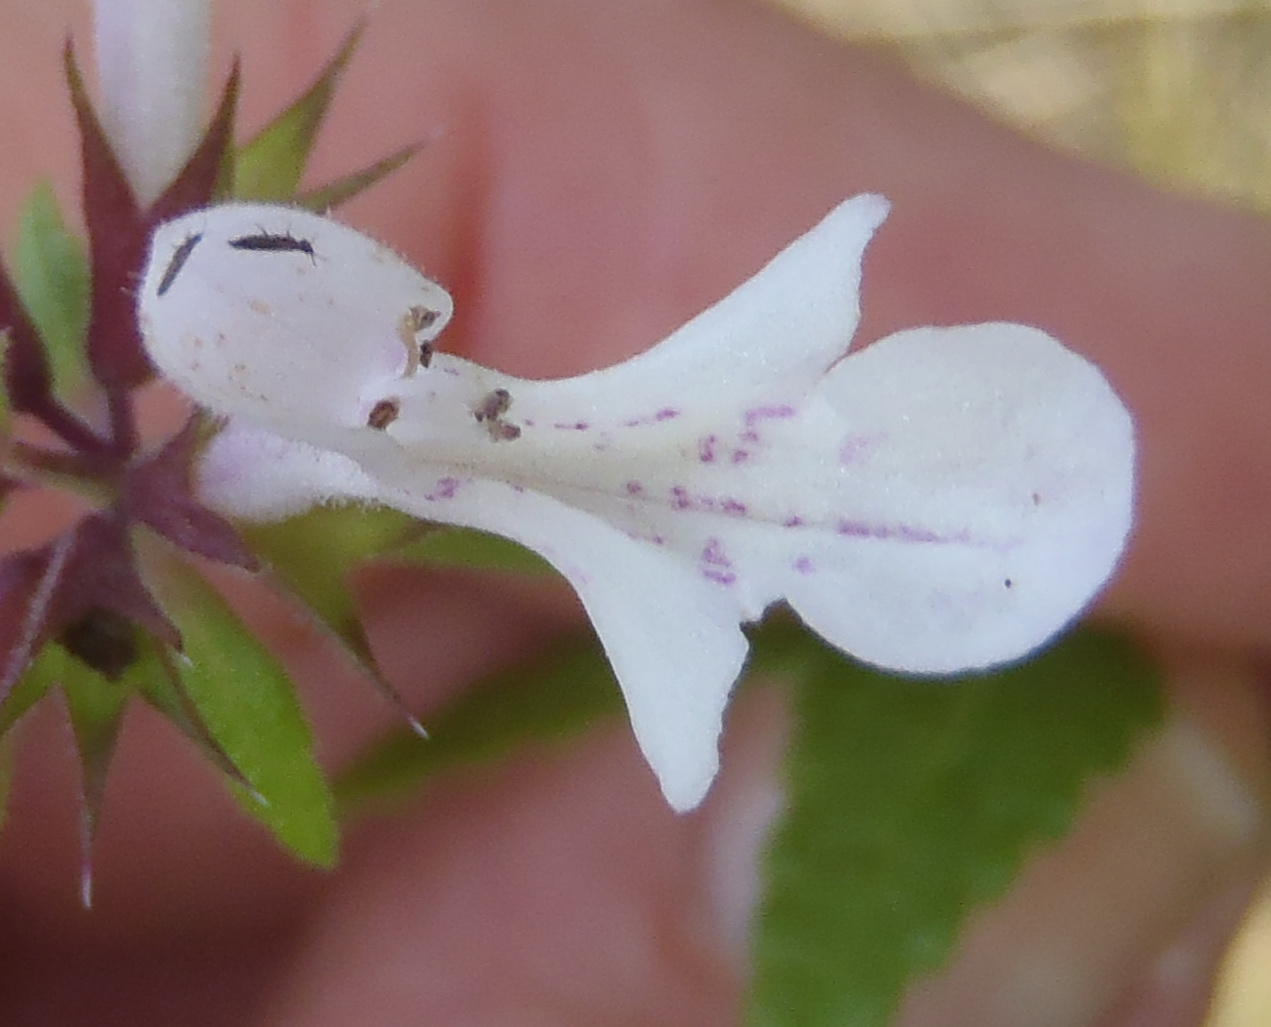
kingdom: Plantae
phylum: Tracheophyta
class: Magnoliopsida
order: Lamiales
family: Lamiaceae
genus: Stachys
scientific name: Stachys aethiopica
